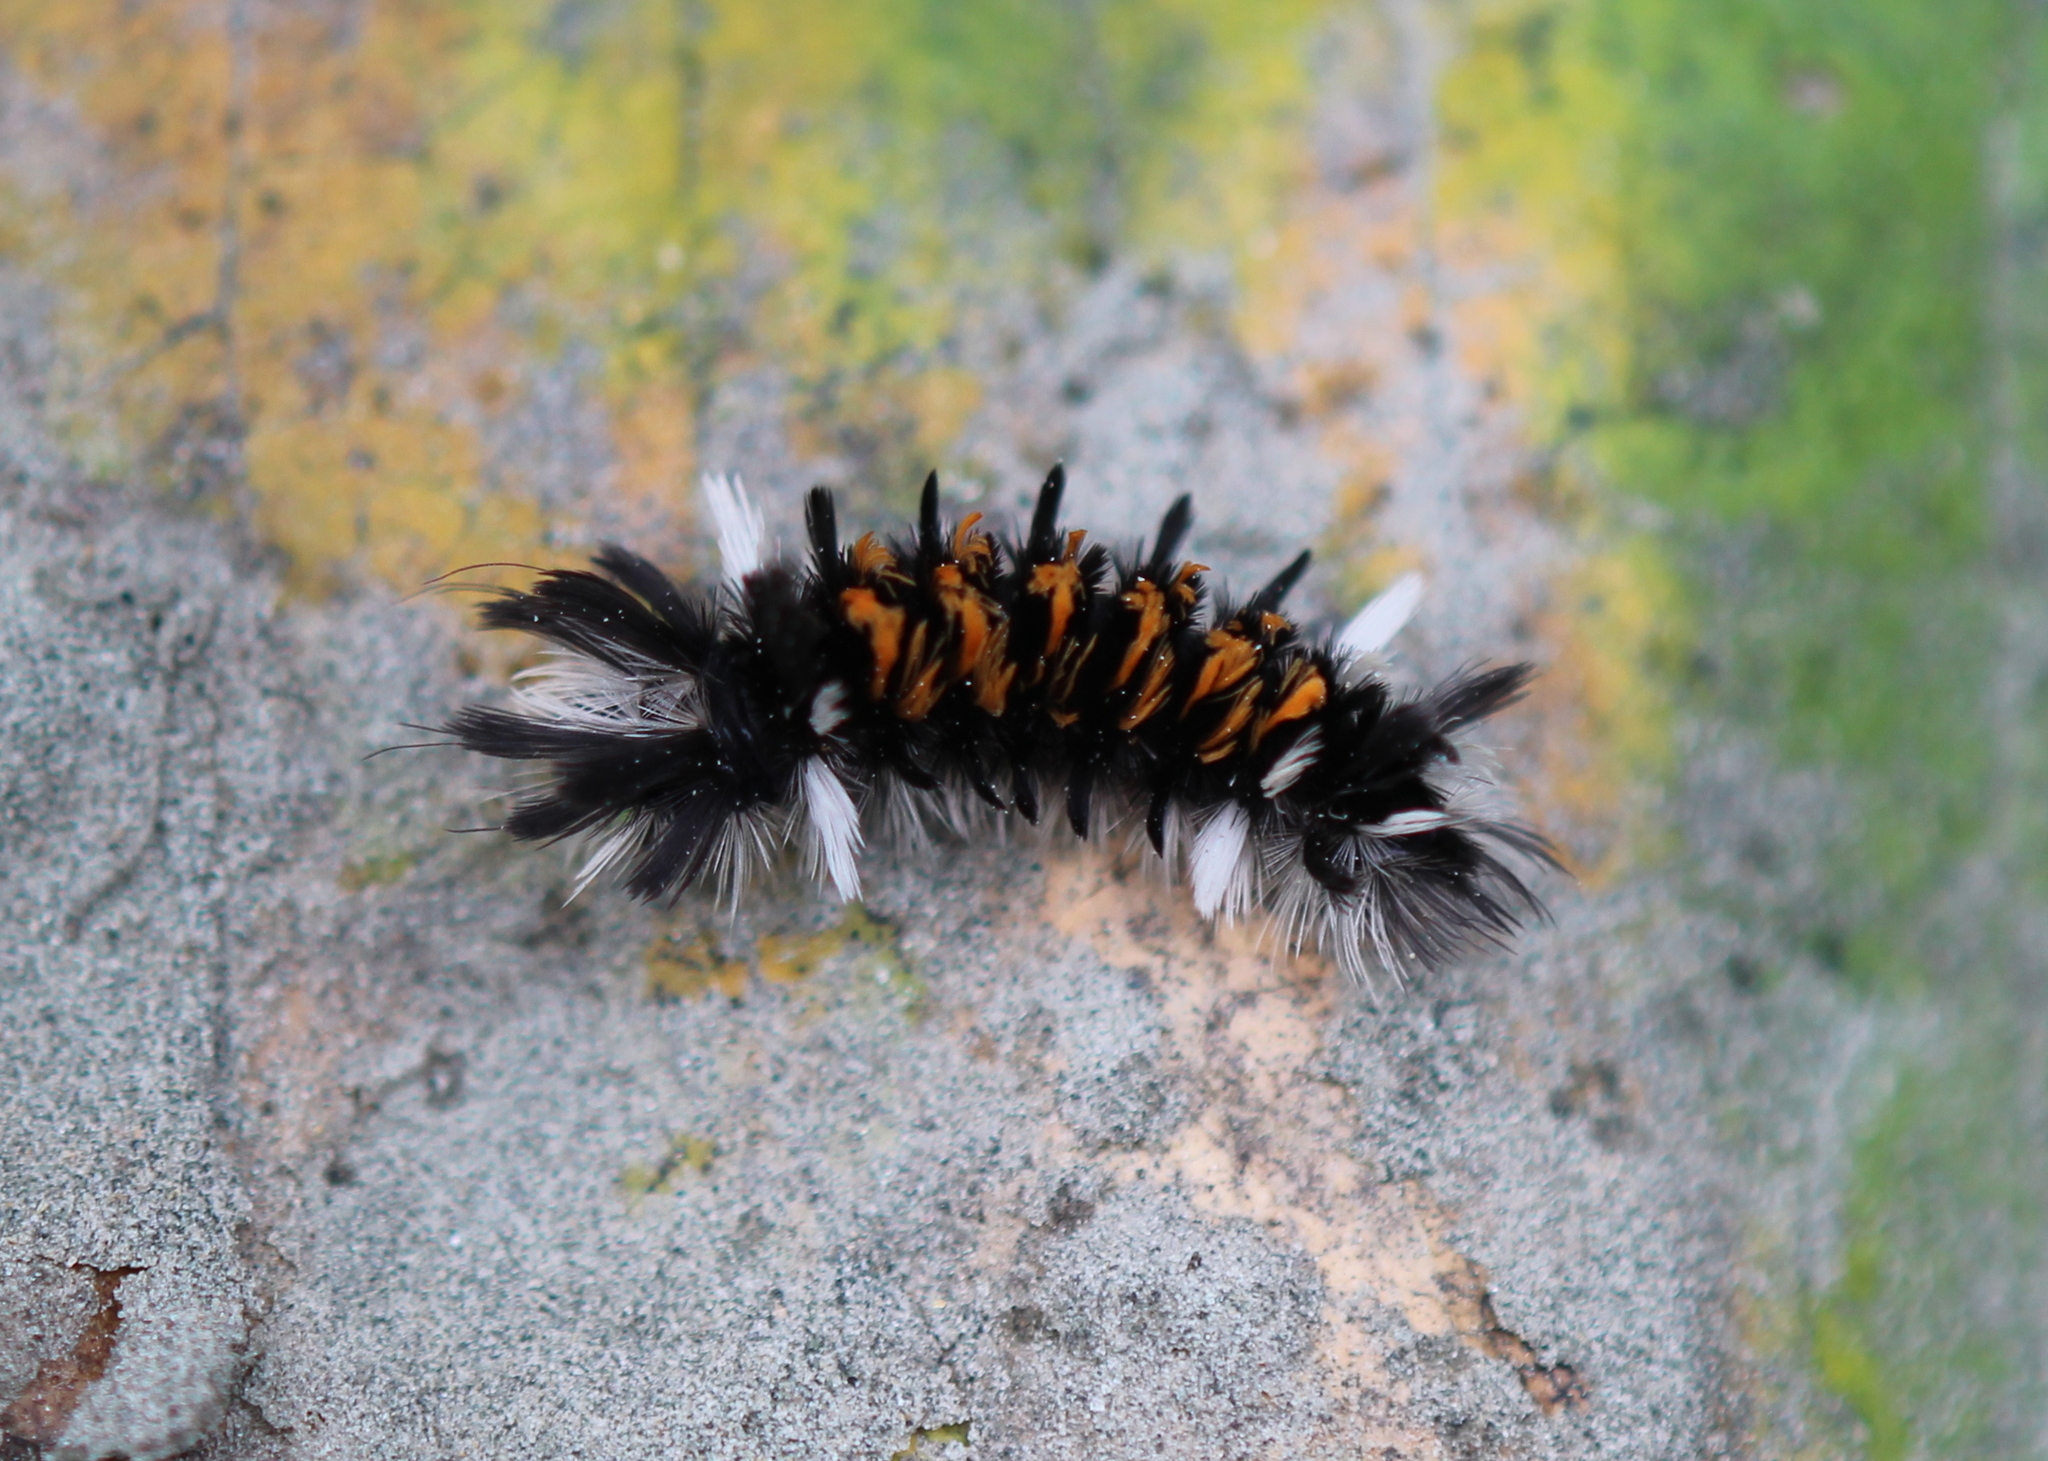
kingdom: Animalia
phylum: Arthropoda
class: Insecta
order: Lepidoptera
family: Erebidae
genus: Euchaetes
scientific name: Euchaetes egle
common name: Milkweed tussock moth
